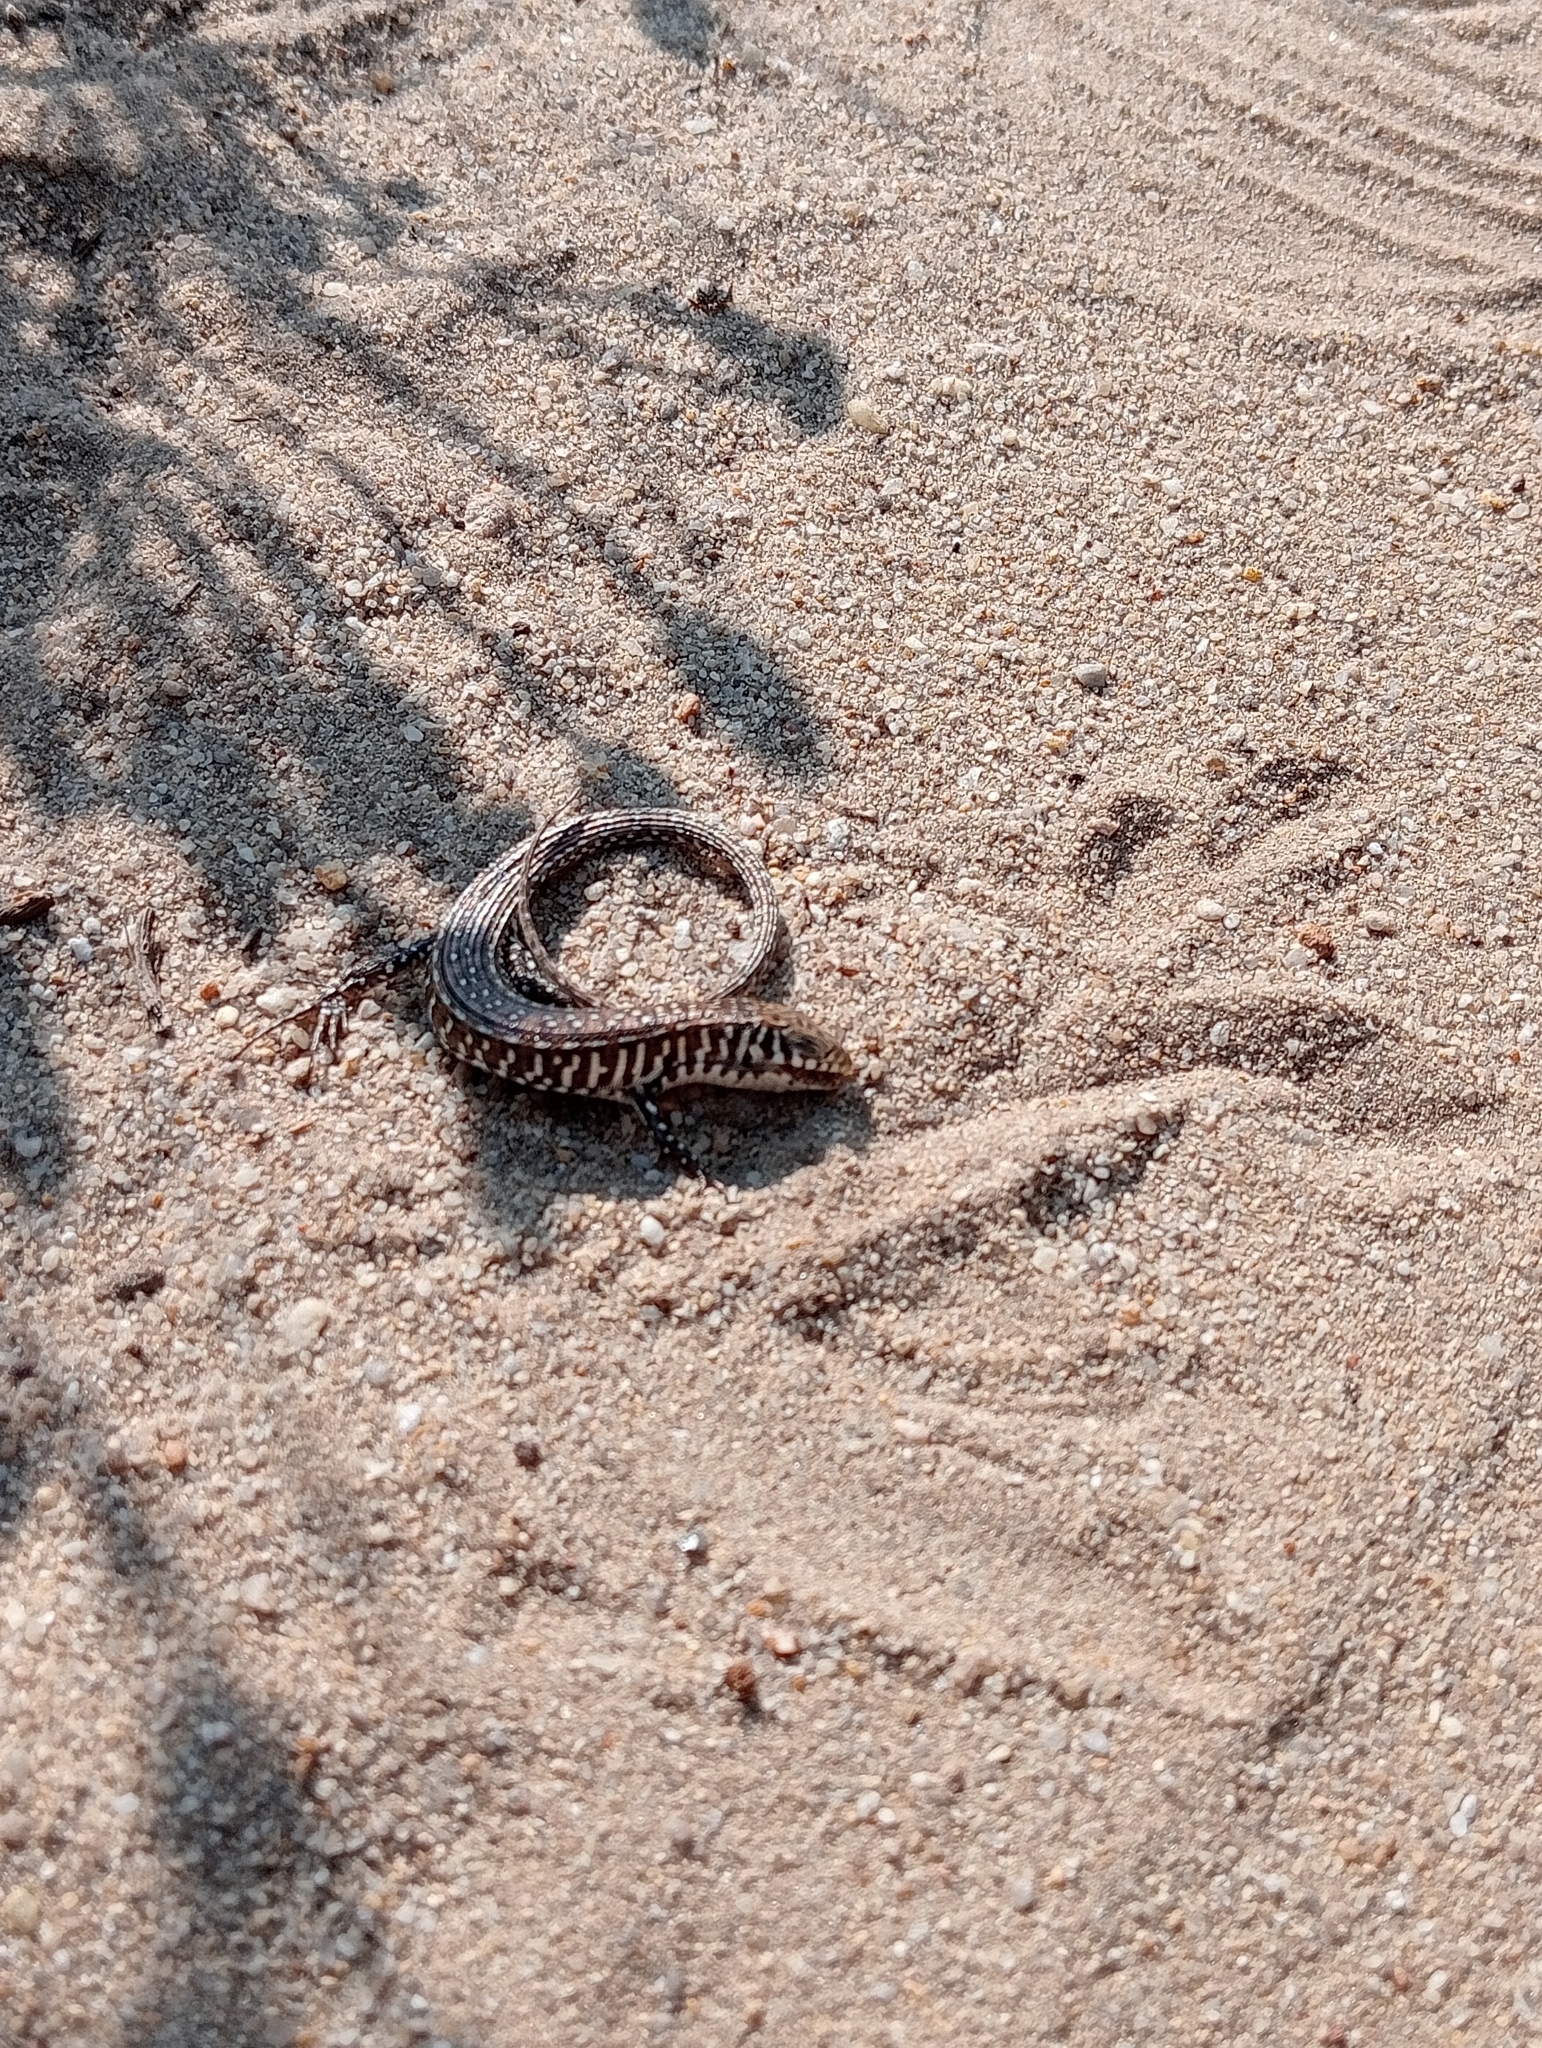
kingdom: Animalia
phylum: Chordata
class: Squamata
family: Gerrhosauridae
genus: Gerrhosaurus
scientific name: Gerrhosaurus flavigularis
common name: Yellow-throated plated lizard
